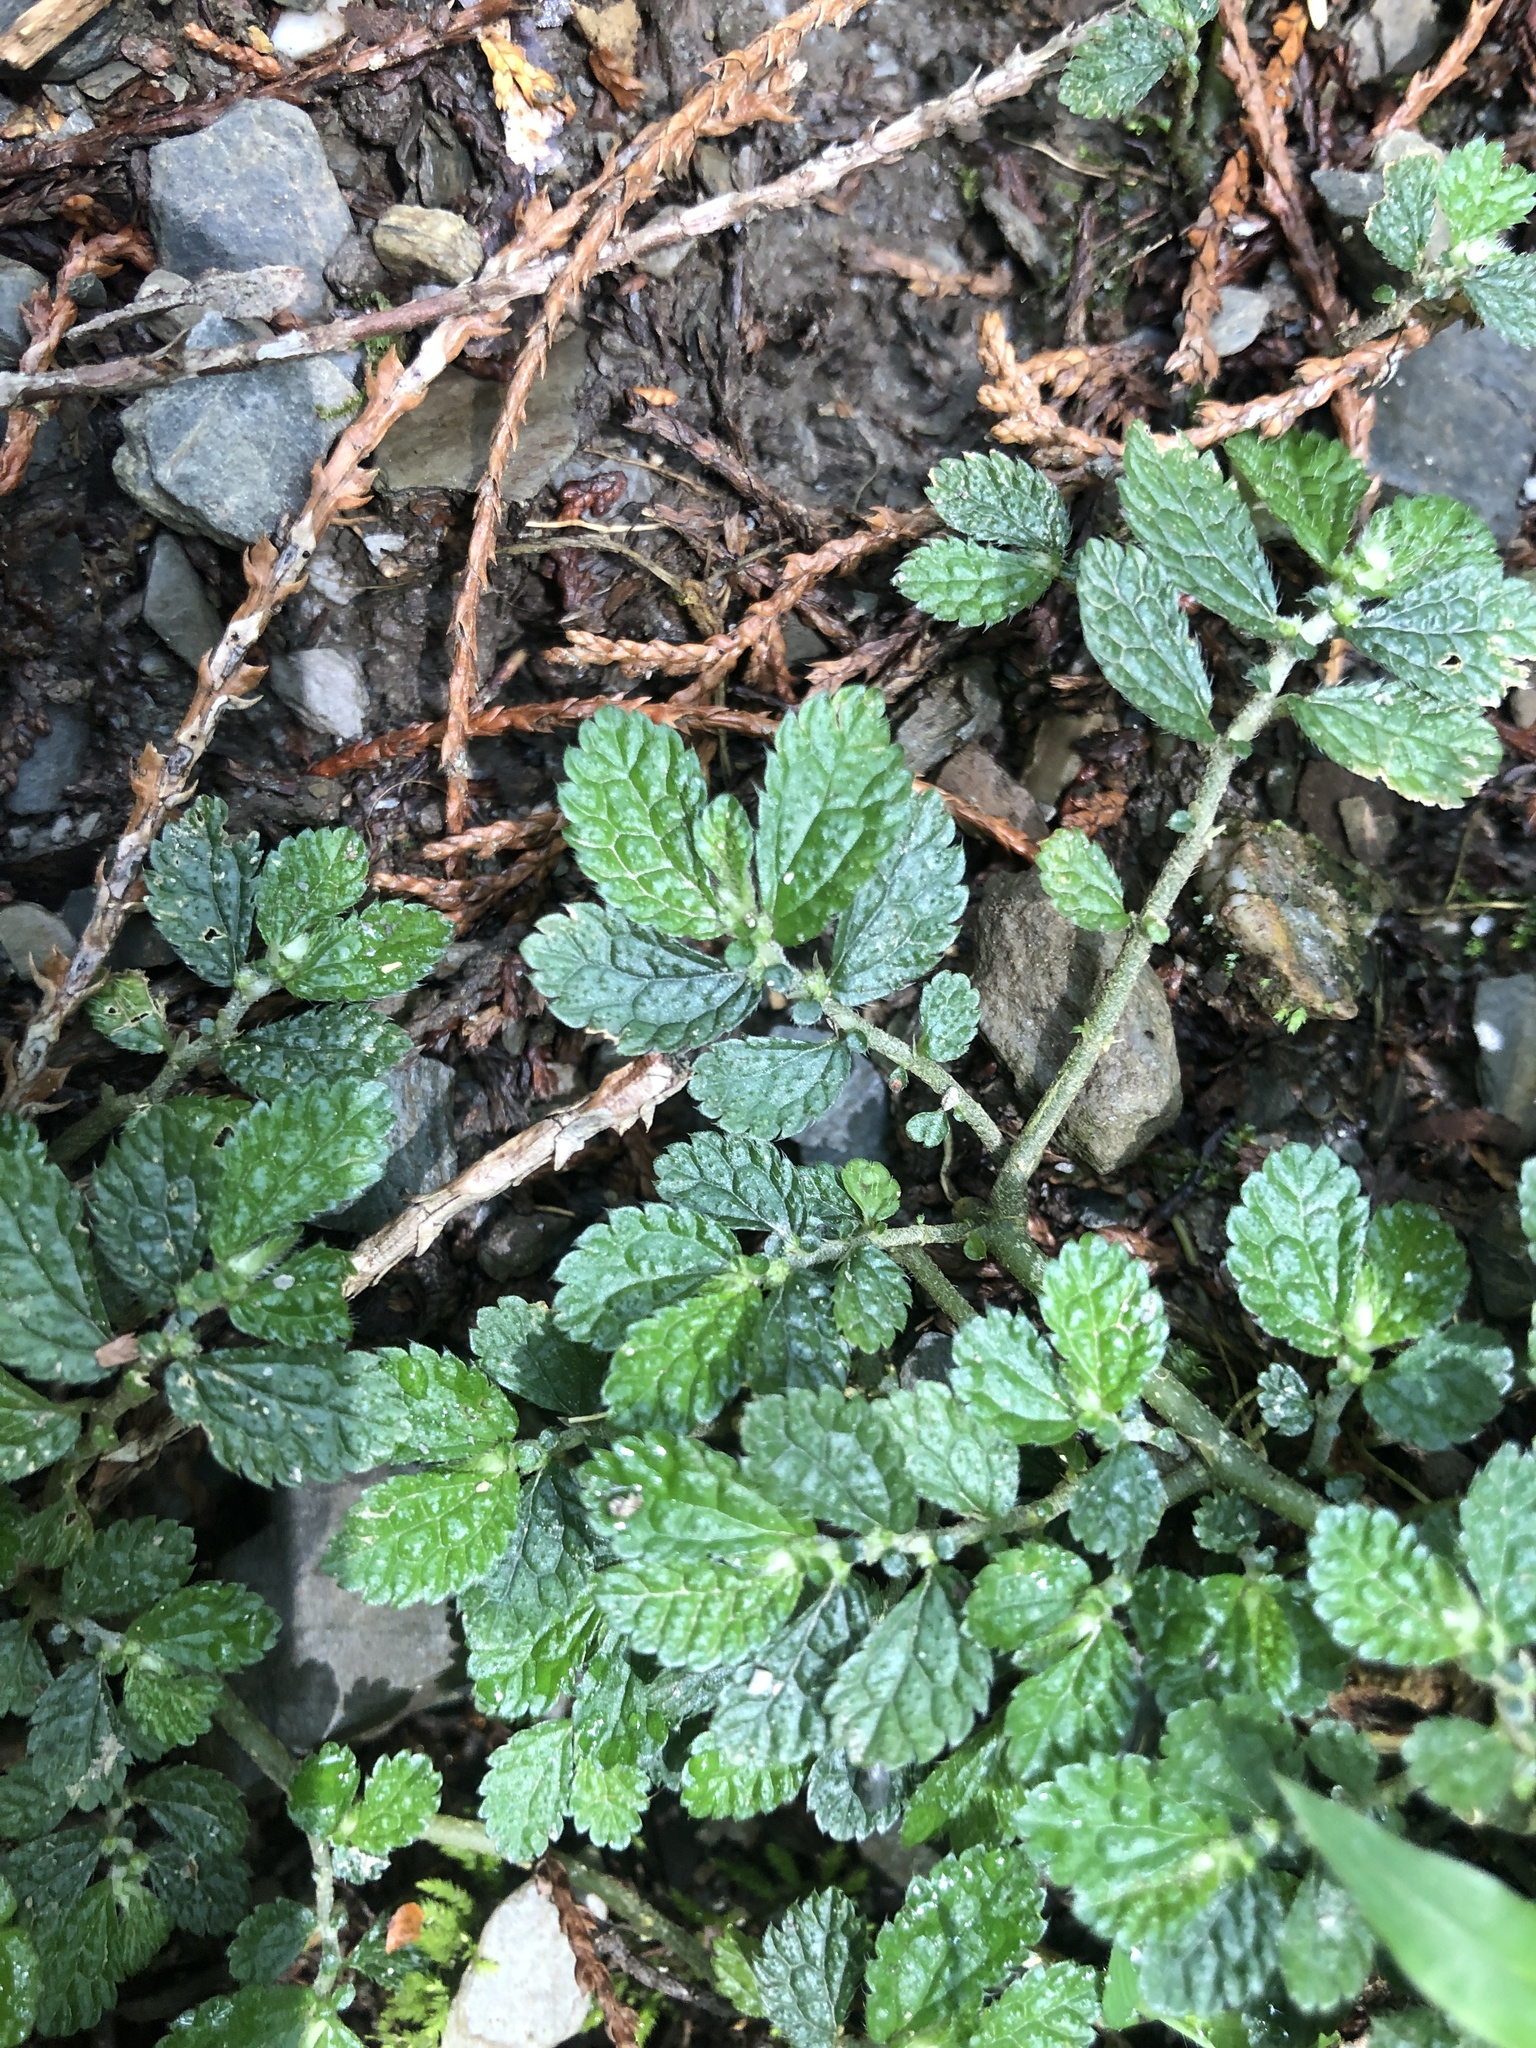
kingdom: Plantae
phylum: Tracheophyta
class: Magnoliopsida
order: Rosales
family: Urticaceae
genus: Elatostema
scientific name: Elatostema parvum
